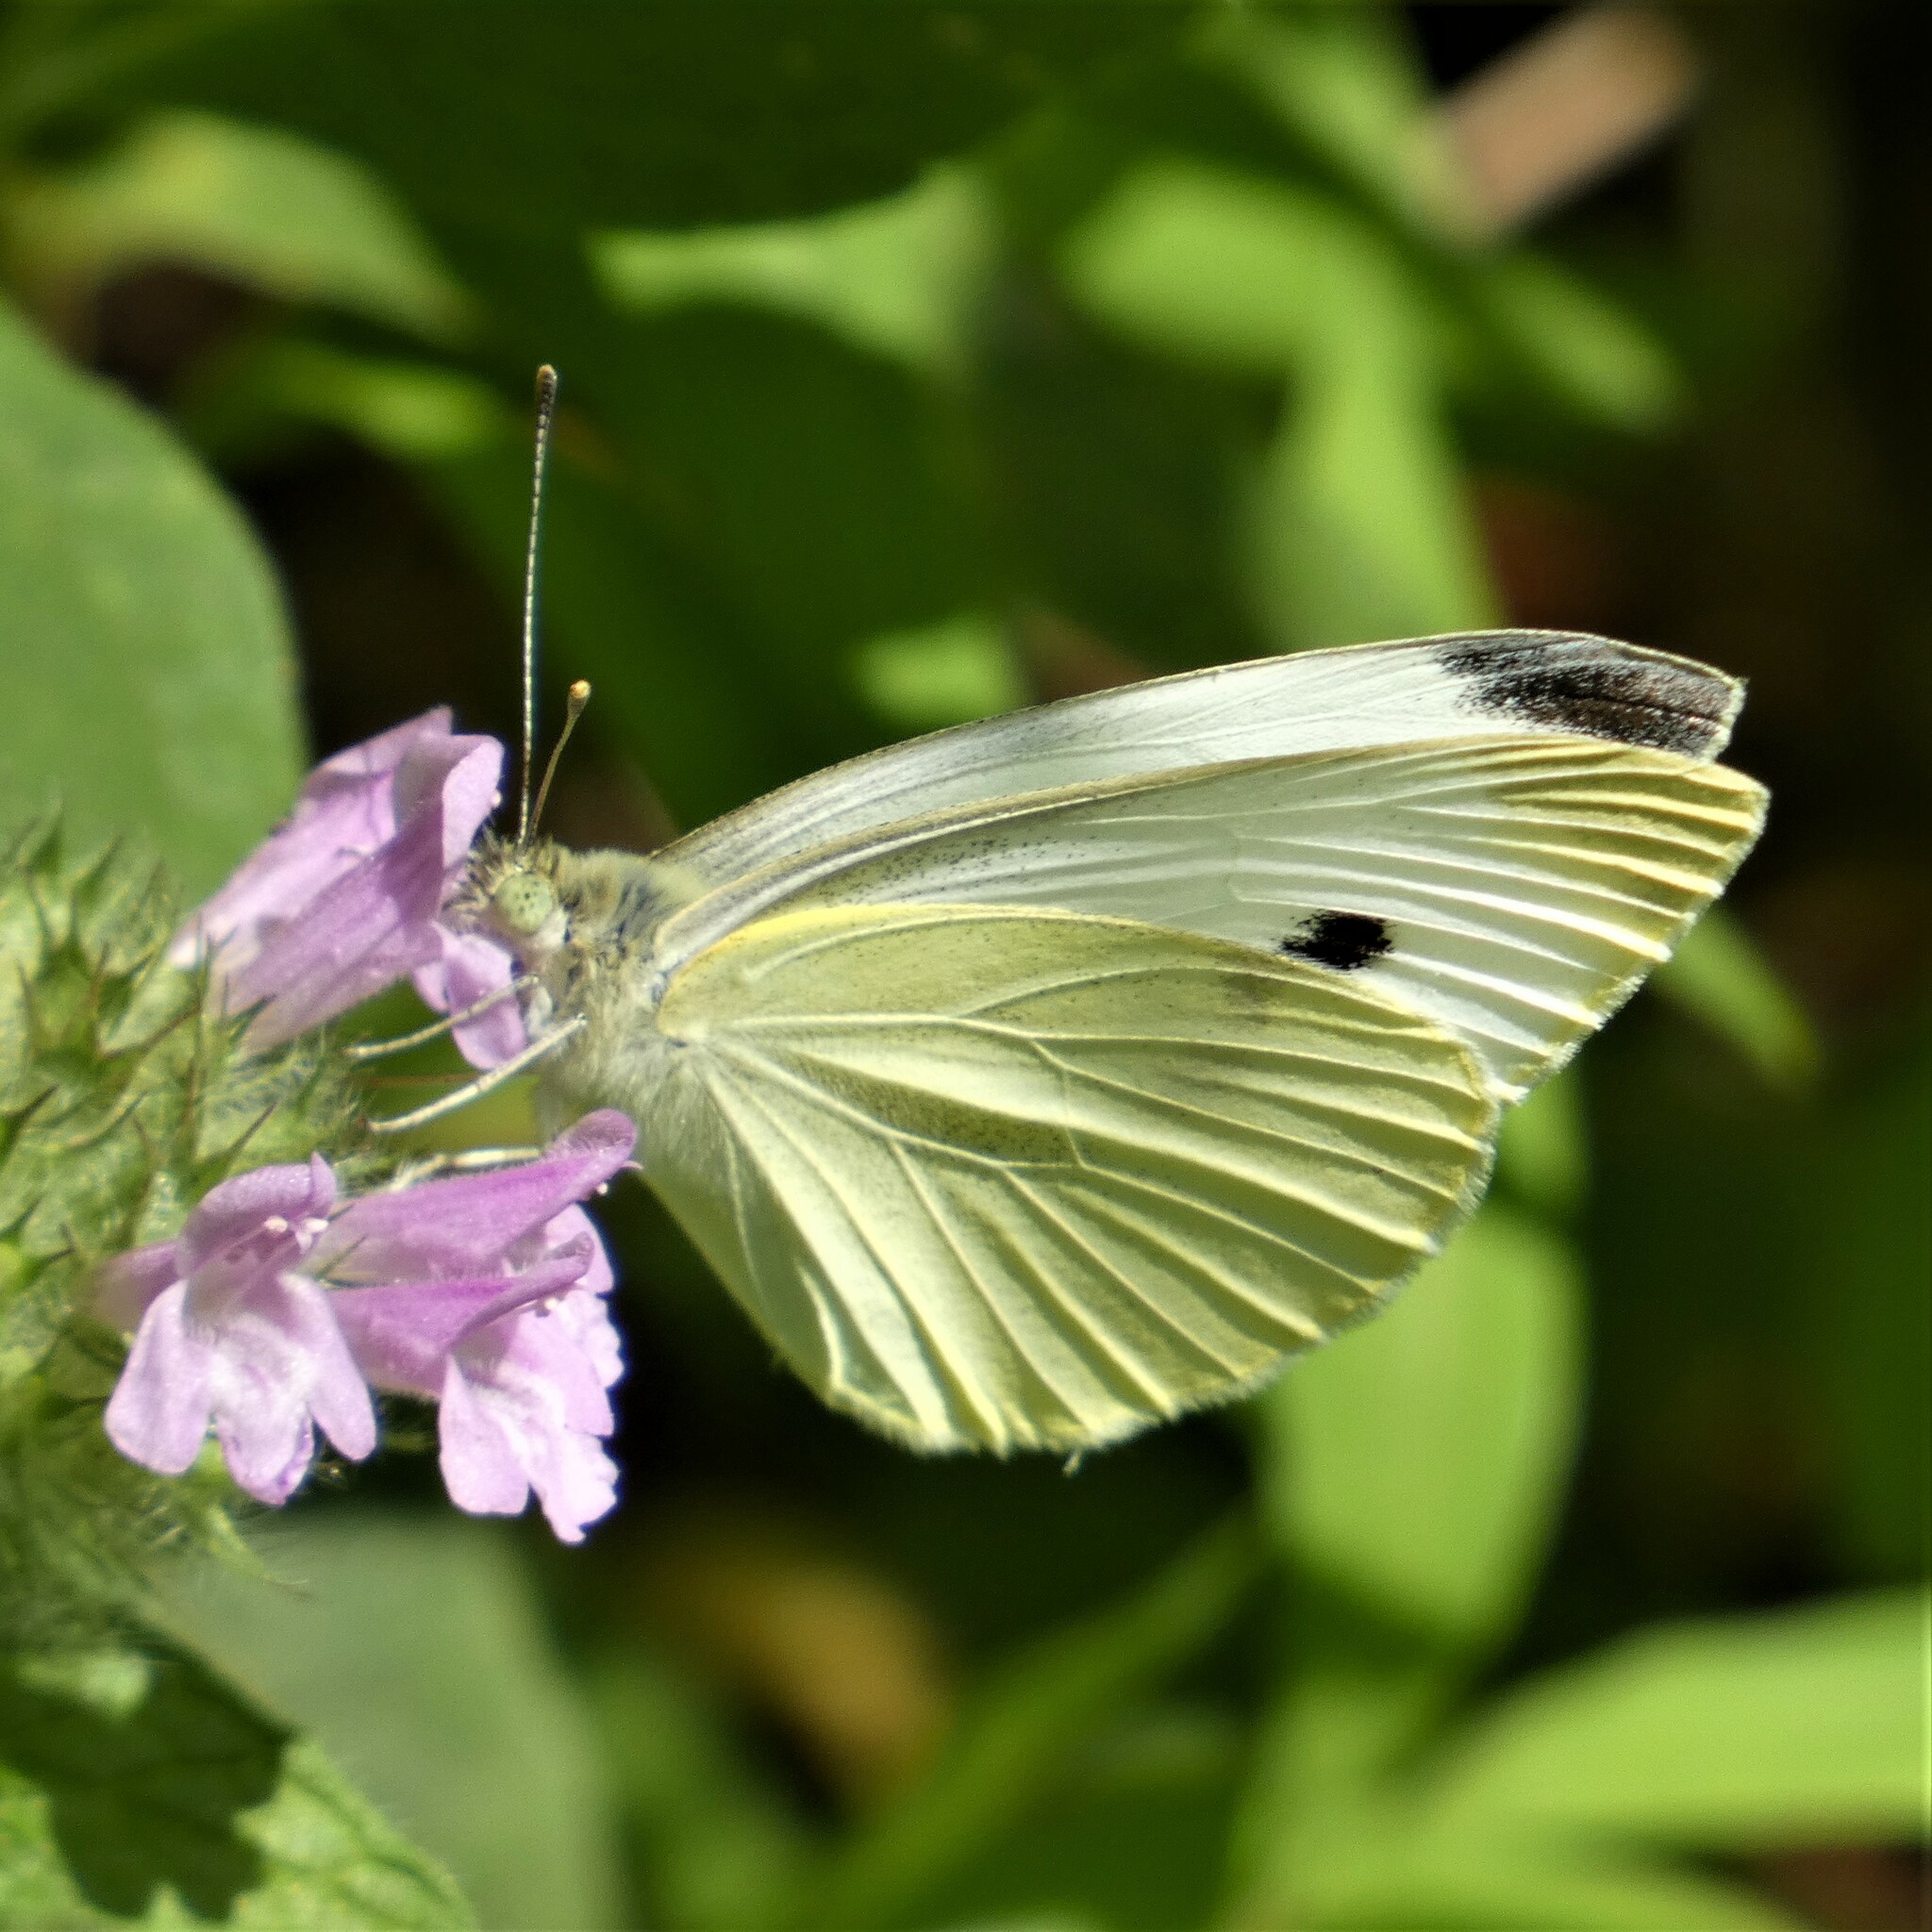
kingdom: Animalia
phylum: Arthropoda
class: Insecta
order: Lepidoptera
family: Pieridae
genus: Pieris
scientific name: Pieris rapae
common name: Small white
